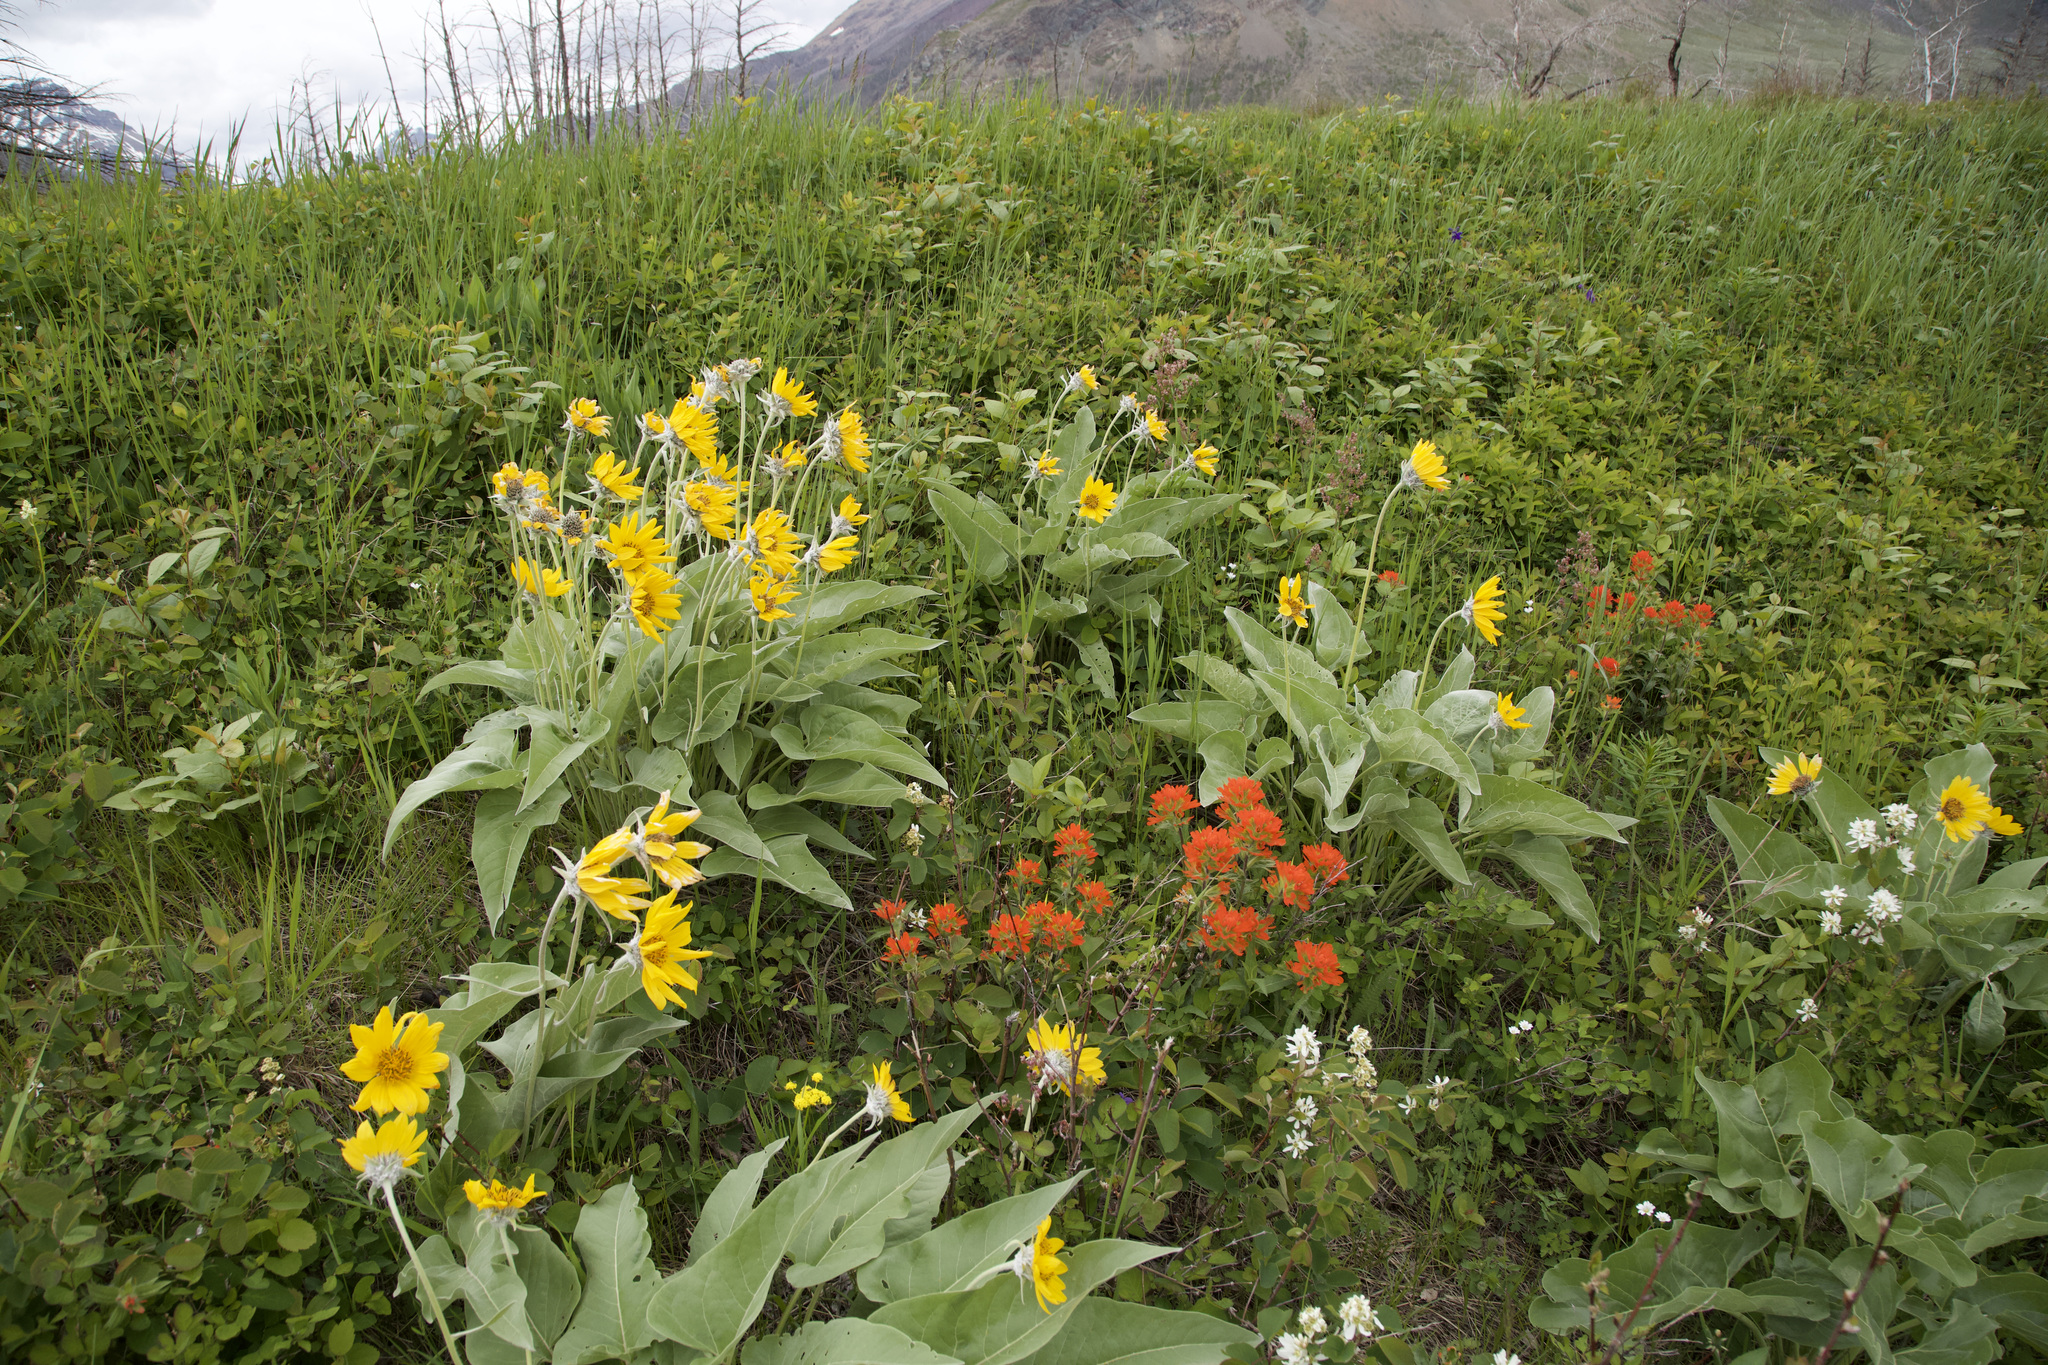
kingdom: Plantae
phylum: Tracheophyta
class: Magnoliopsida
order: Lamiales
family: Orobanchaceae
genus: Castilleja
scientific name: Castilleja hispida
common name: Bristly paintbrush
